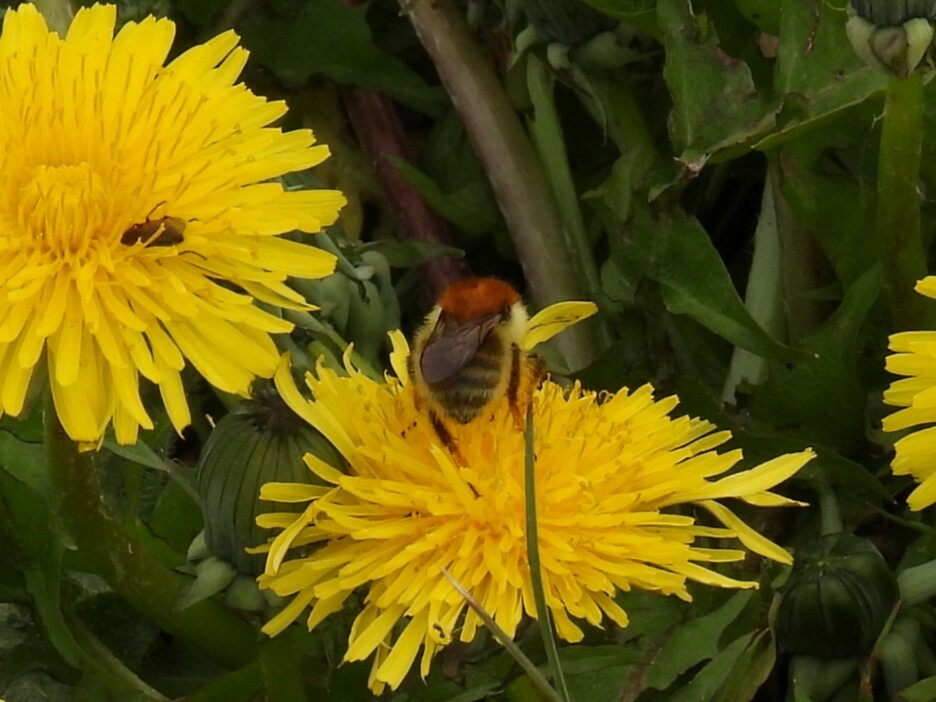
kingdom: Animalia
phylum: Arthropoda
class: Insecta
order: Hymenoptera
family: Apidae
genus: Bombus
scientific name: Bombus humilis
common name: Brown-banded carder-bee
